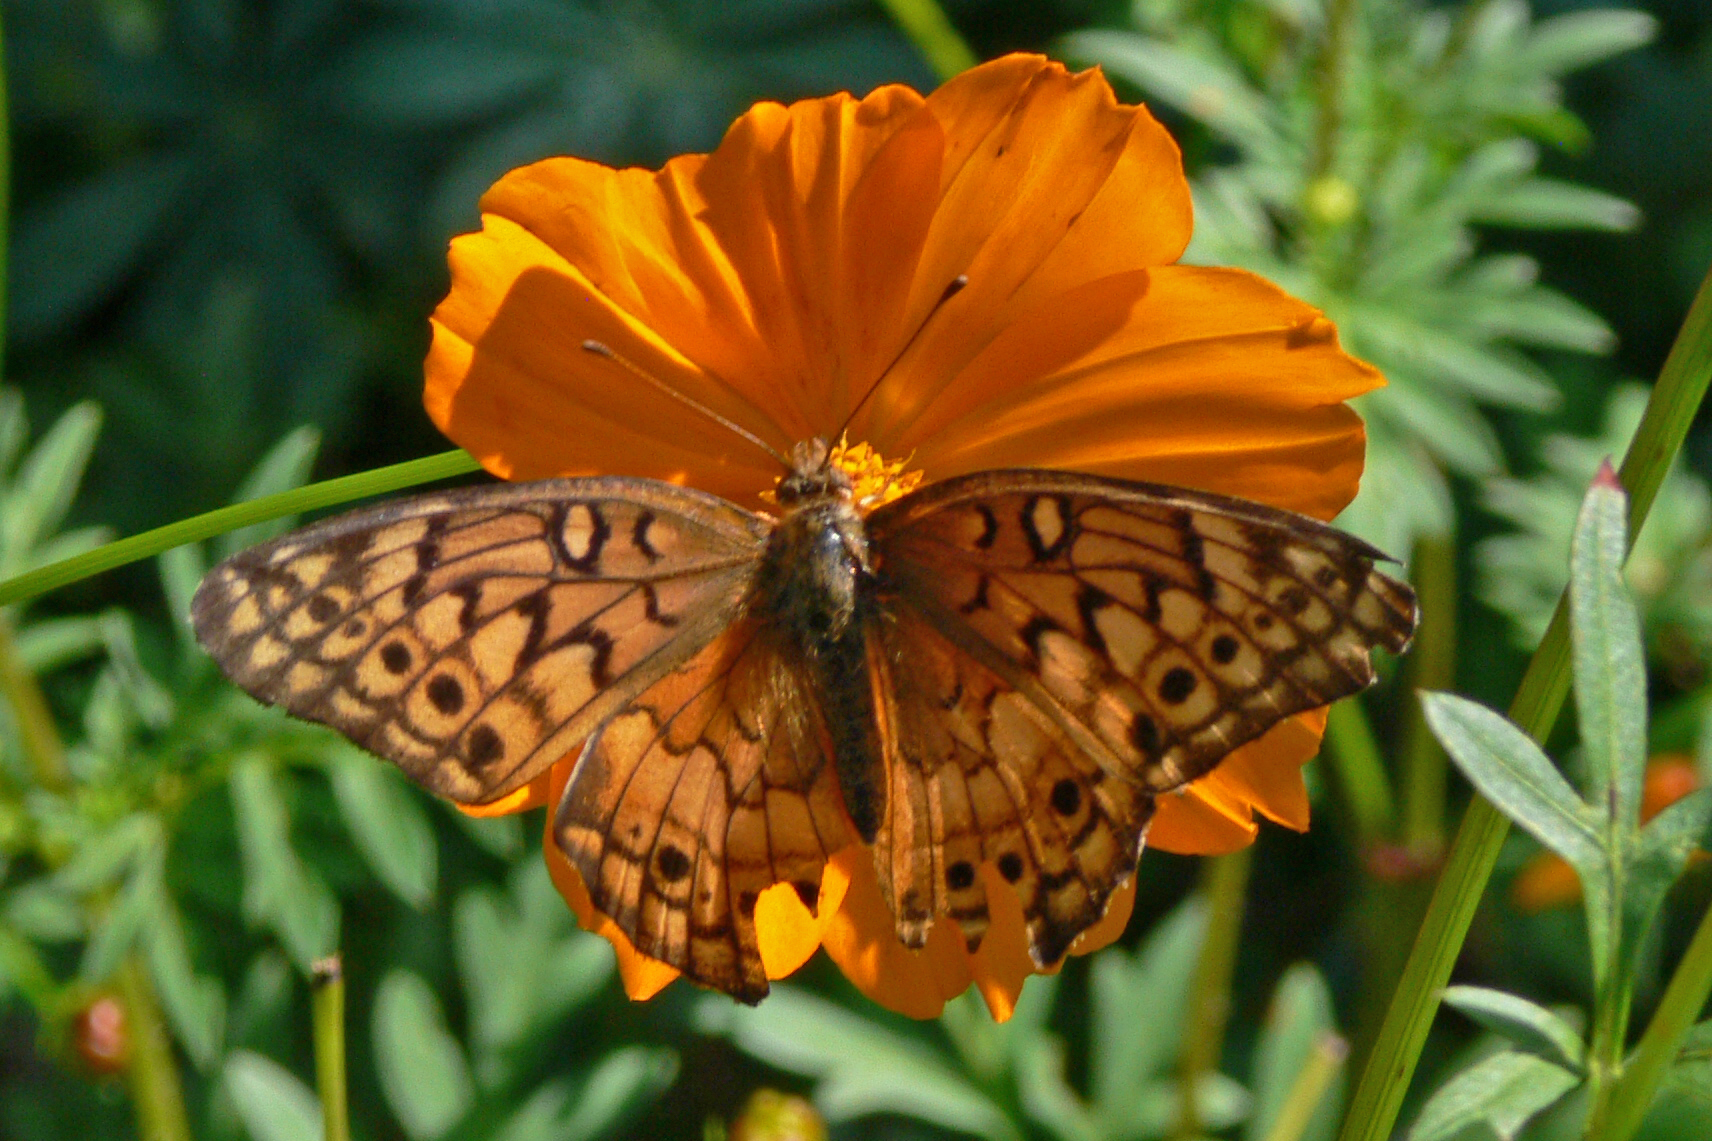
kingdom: Animalia
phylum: Arthropoda
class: Insecta
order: Lepidoptera
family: Nymphalidae
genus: Euptoieta
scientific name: Euptoieta claudia
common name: Variegated fritillary
